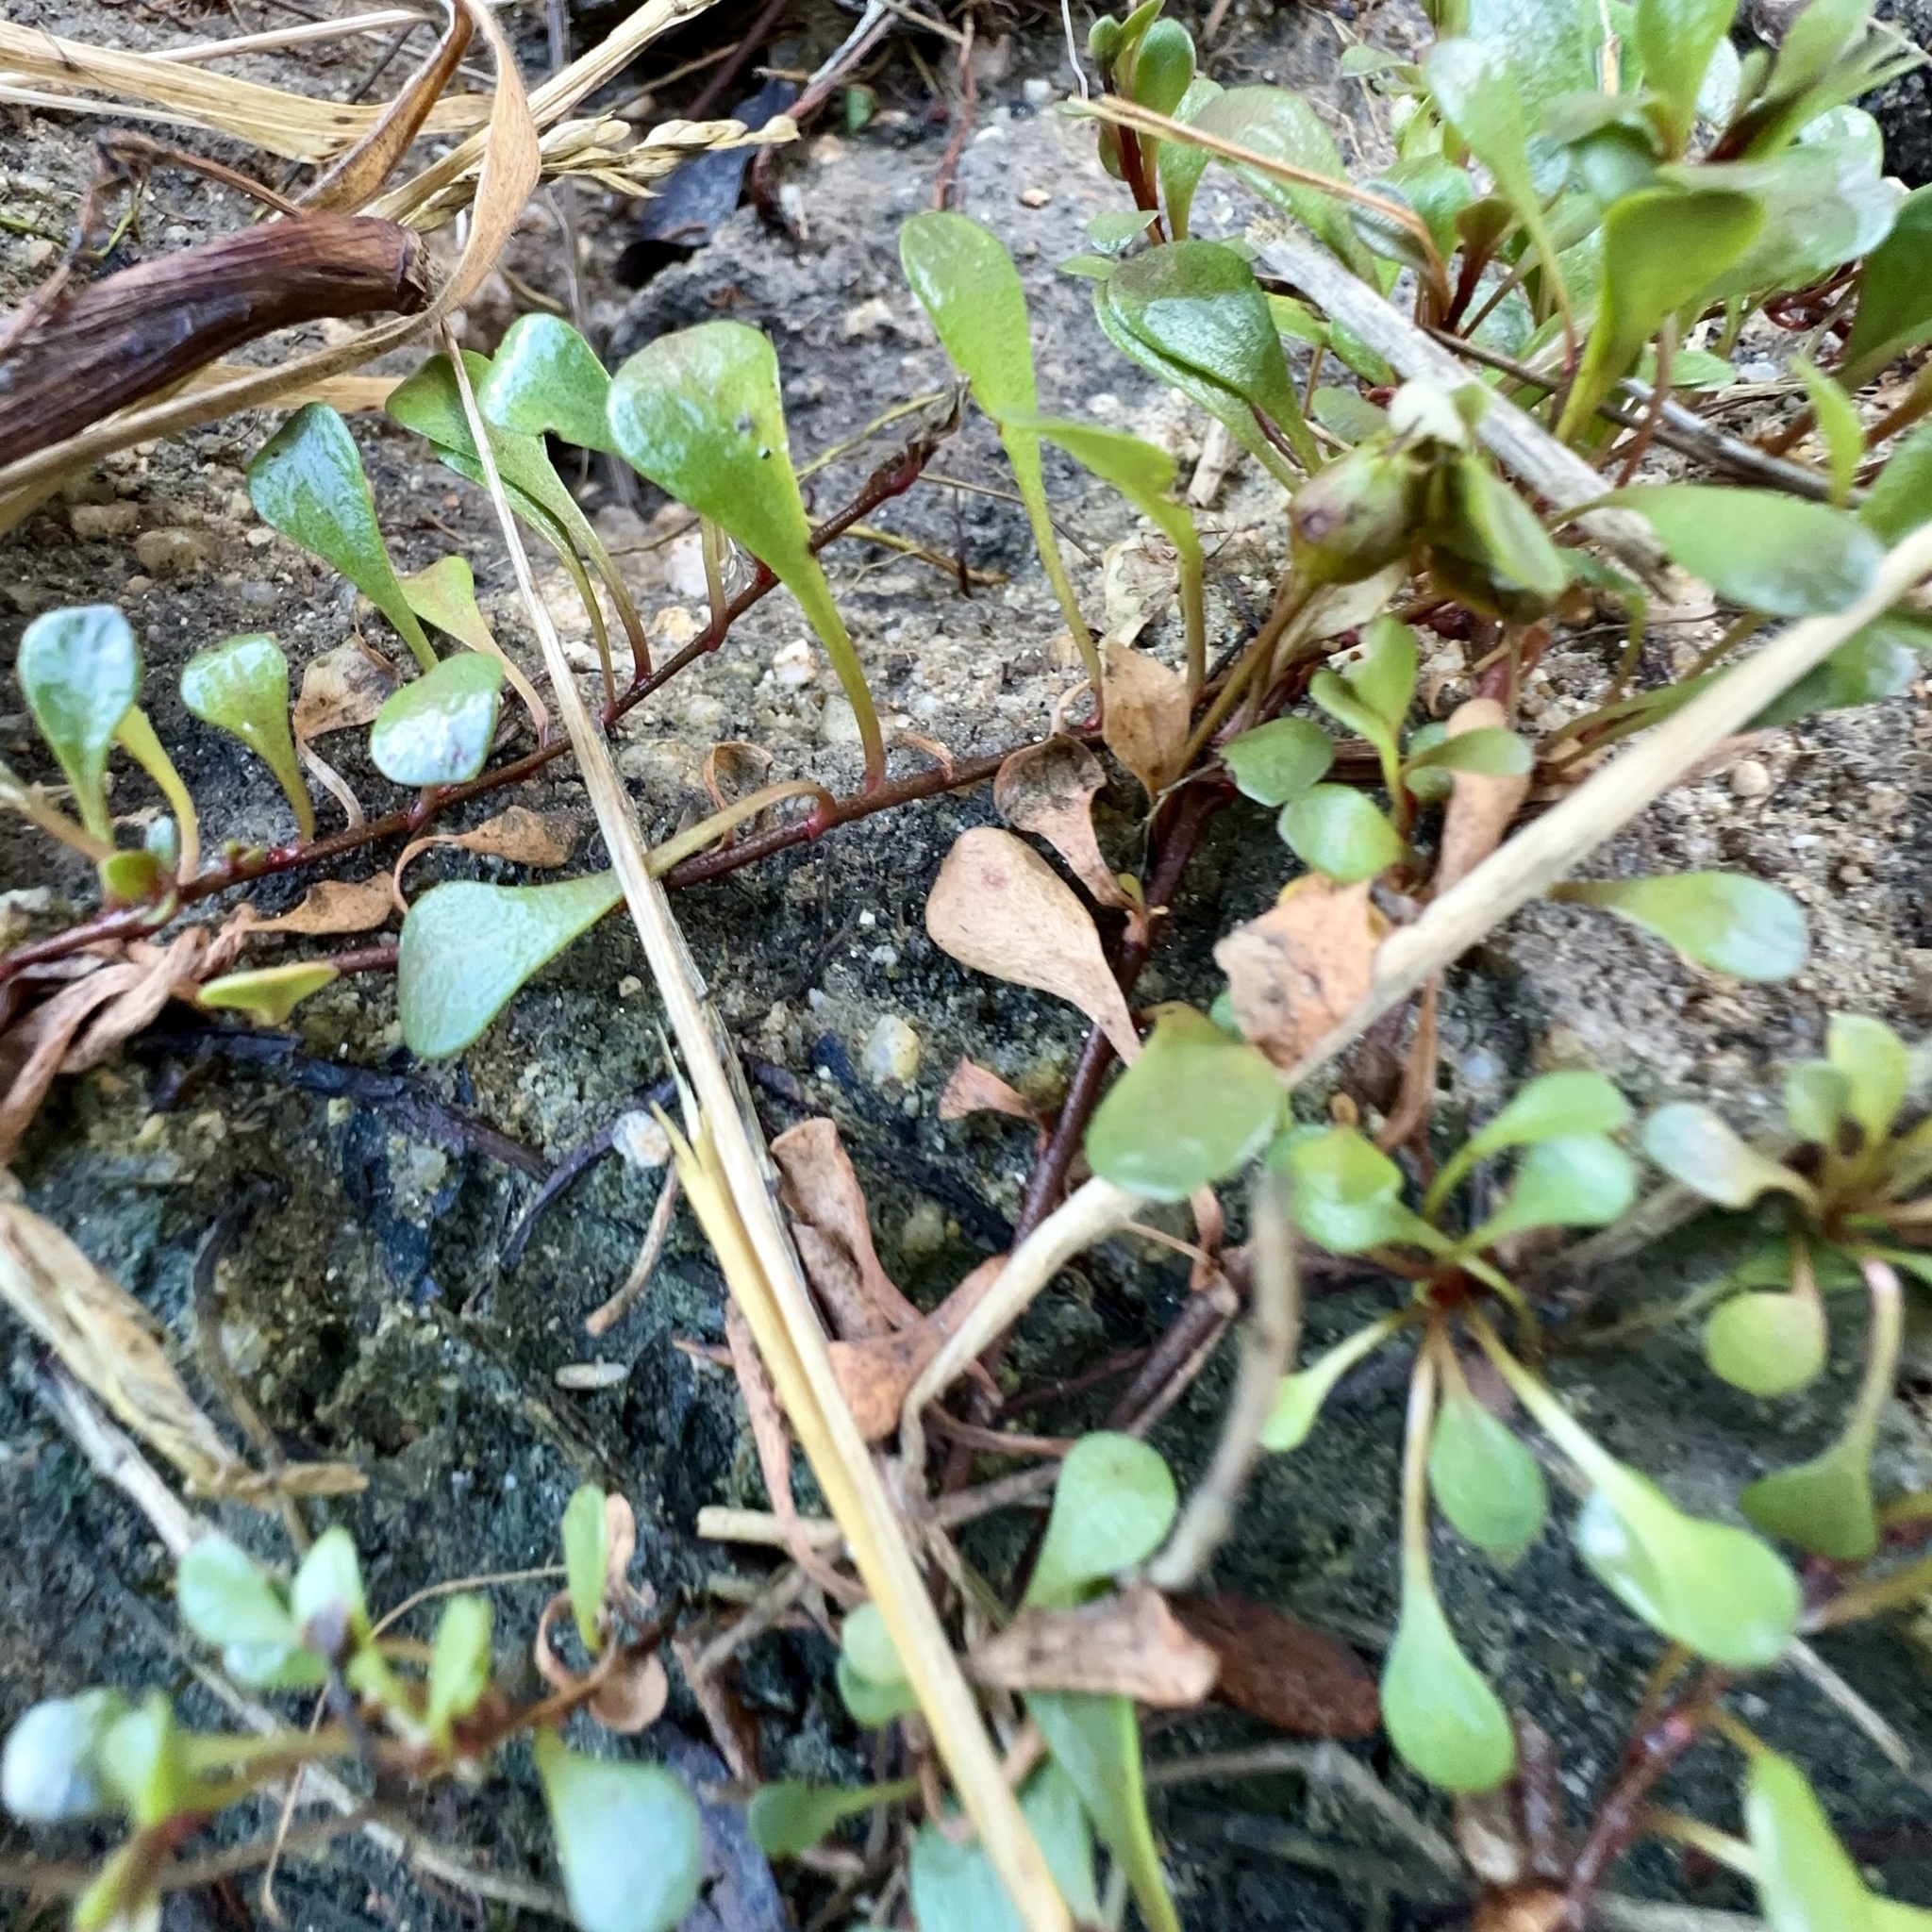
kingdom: Plantae
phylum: Tracheophyta
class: Magnoliopsida
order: Ericales
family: Primulaceae
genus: Samolus
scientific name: Samolus repens
